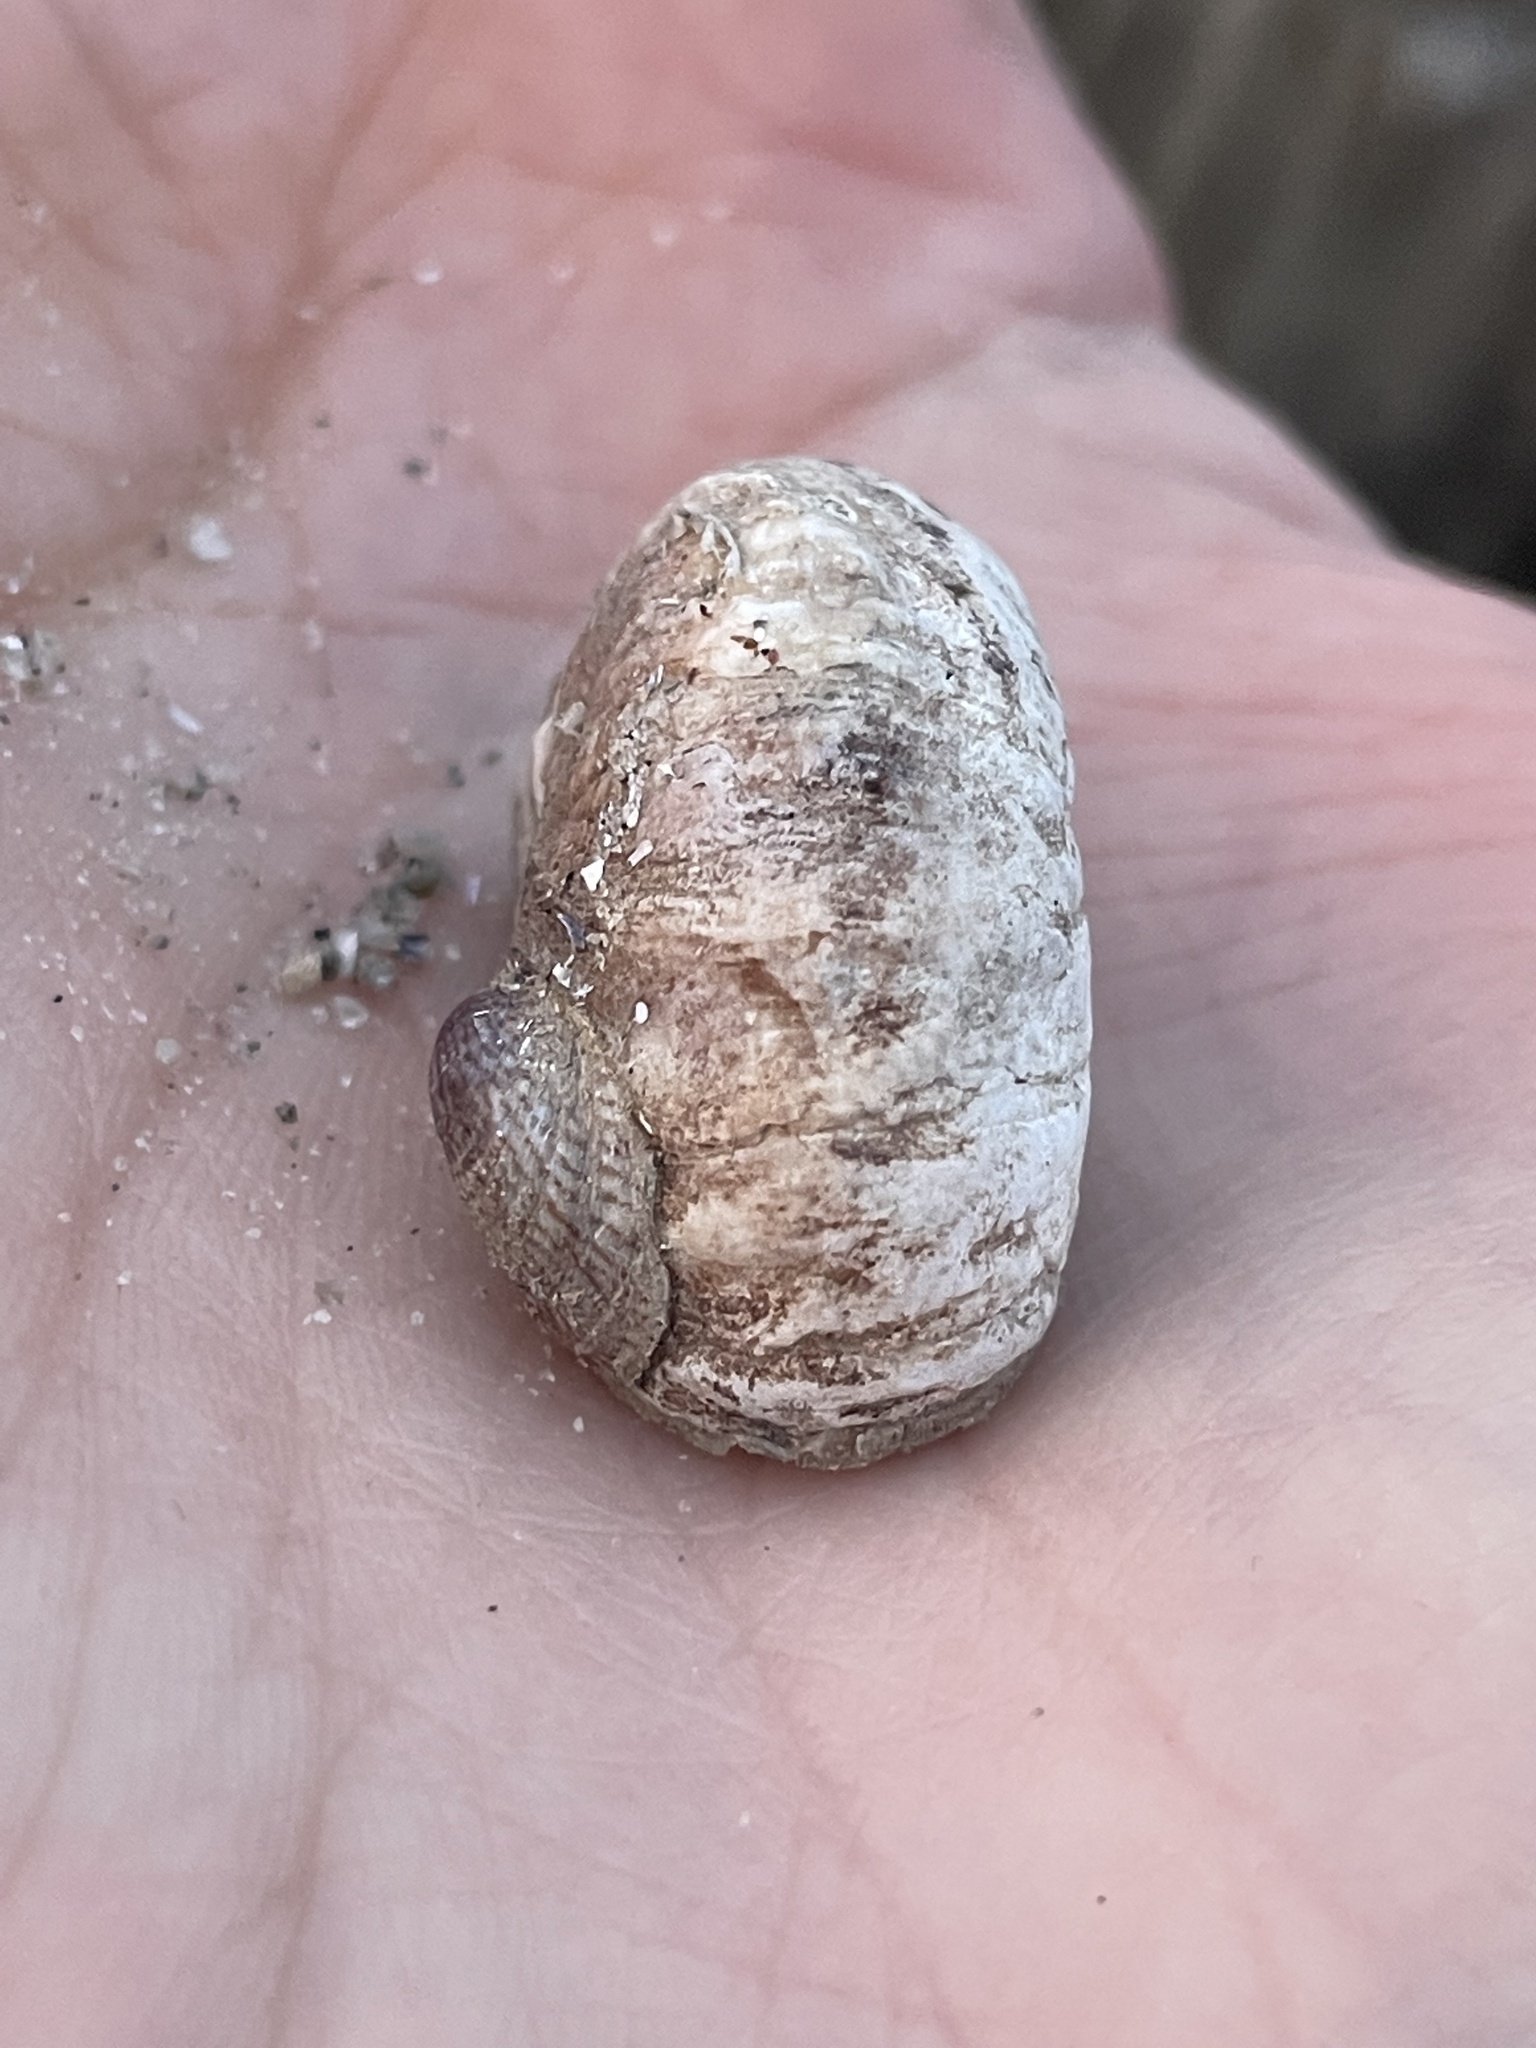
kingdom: Animalia
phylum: Mollusca
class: Gastropoda
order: Littorinimorpha
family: Calyptraeidae
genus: Crepidula
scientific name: Crepidula fornicata
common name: Slipper limpet
